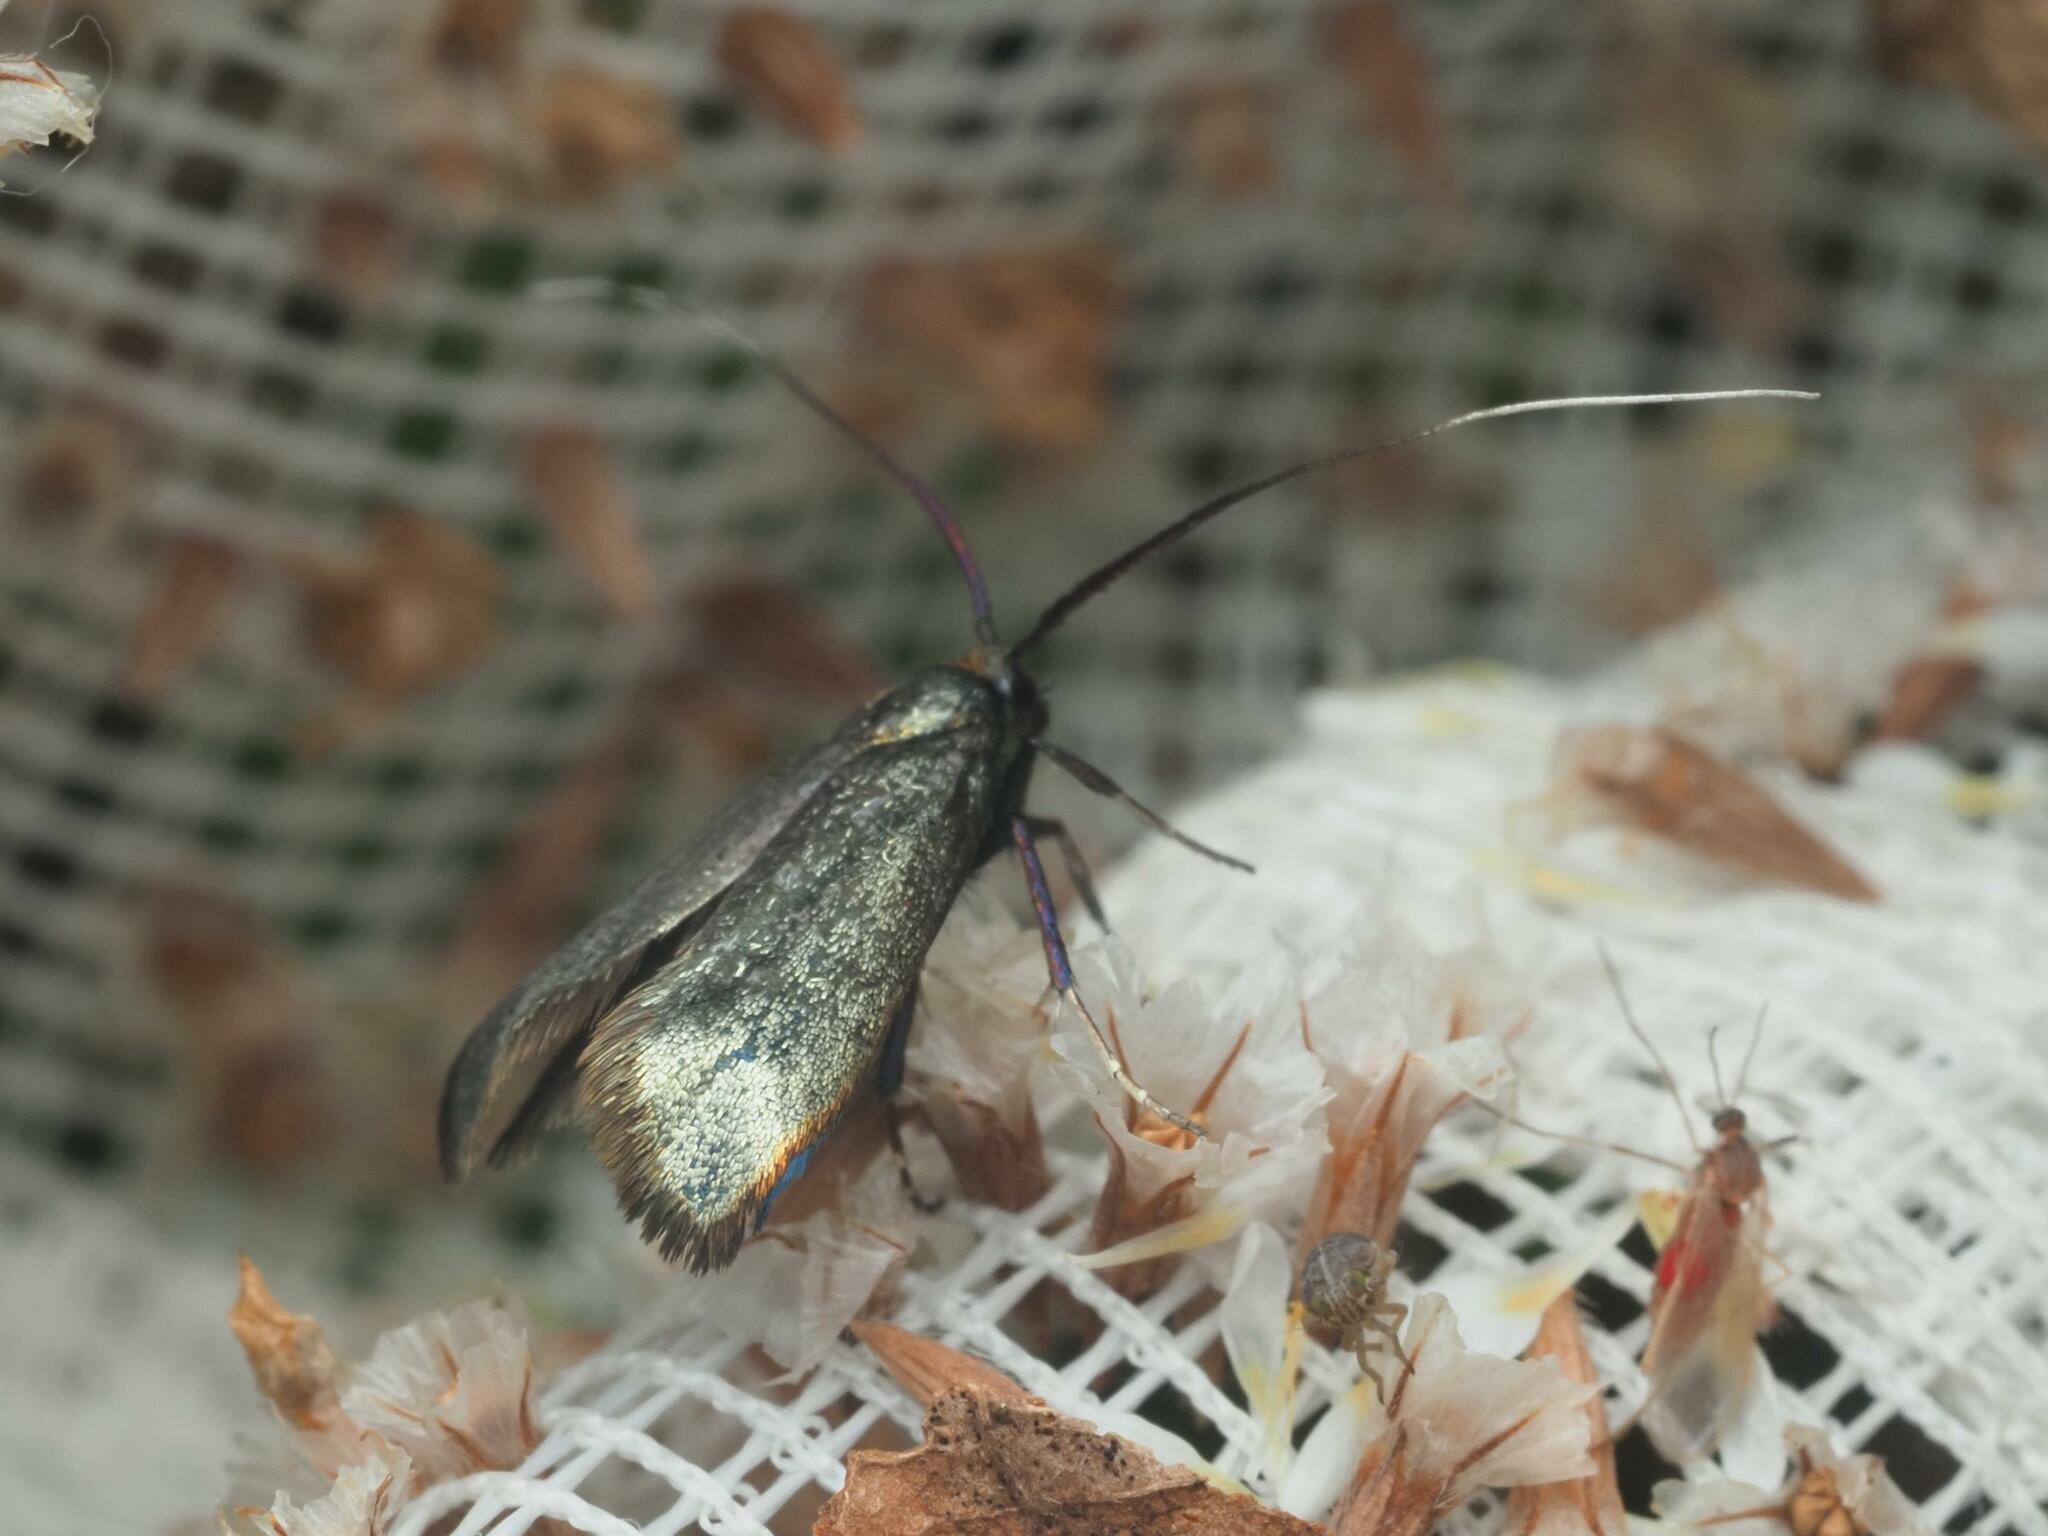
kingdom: Animalia
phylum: Arthropoda
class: Insecta
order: Lepidoptera
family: Adelidae
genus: Adela
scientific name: Adela viridella
